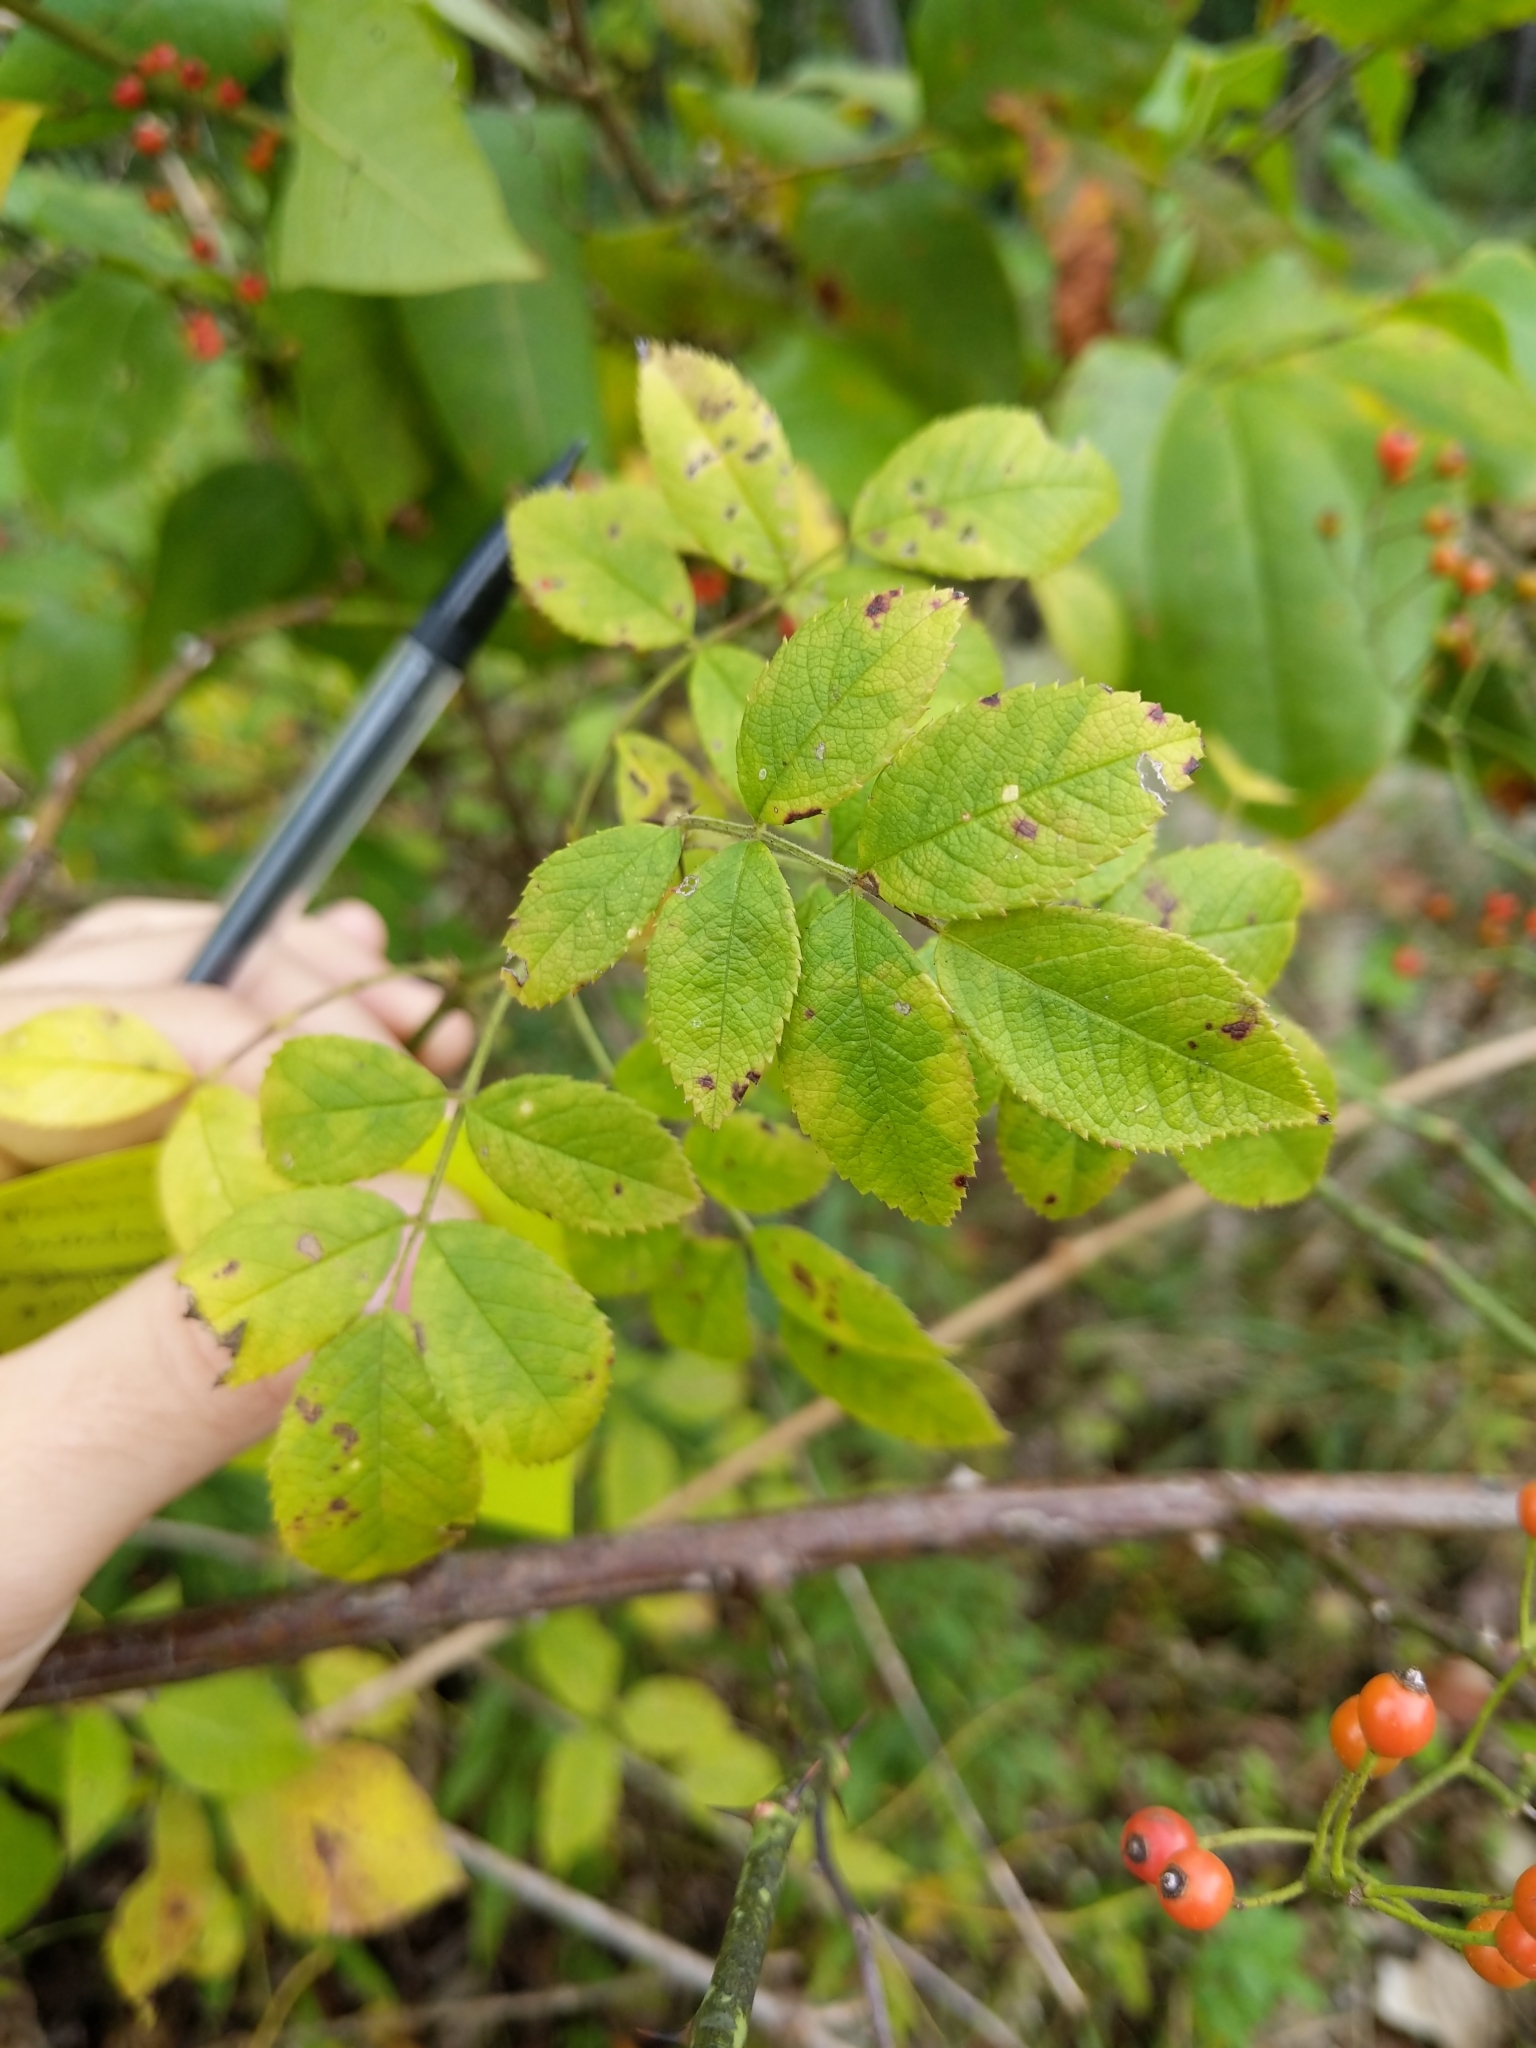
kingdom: Plantae
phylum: Tracheophyta
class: Magnoliopsida
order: Rosales
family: Rosaceae
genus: Rosa
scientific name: Rosa multiflora
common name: Multiflora rose
